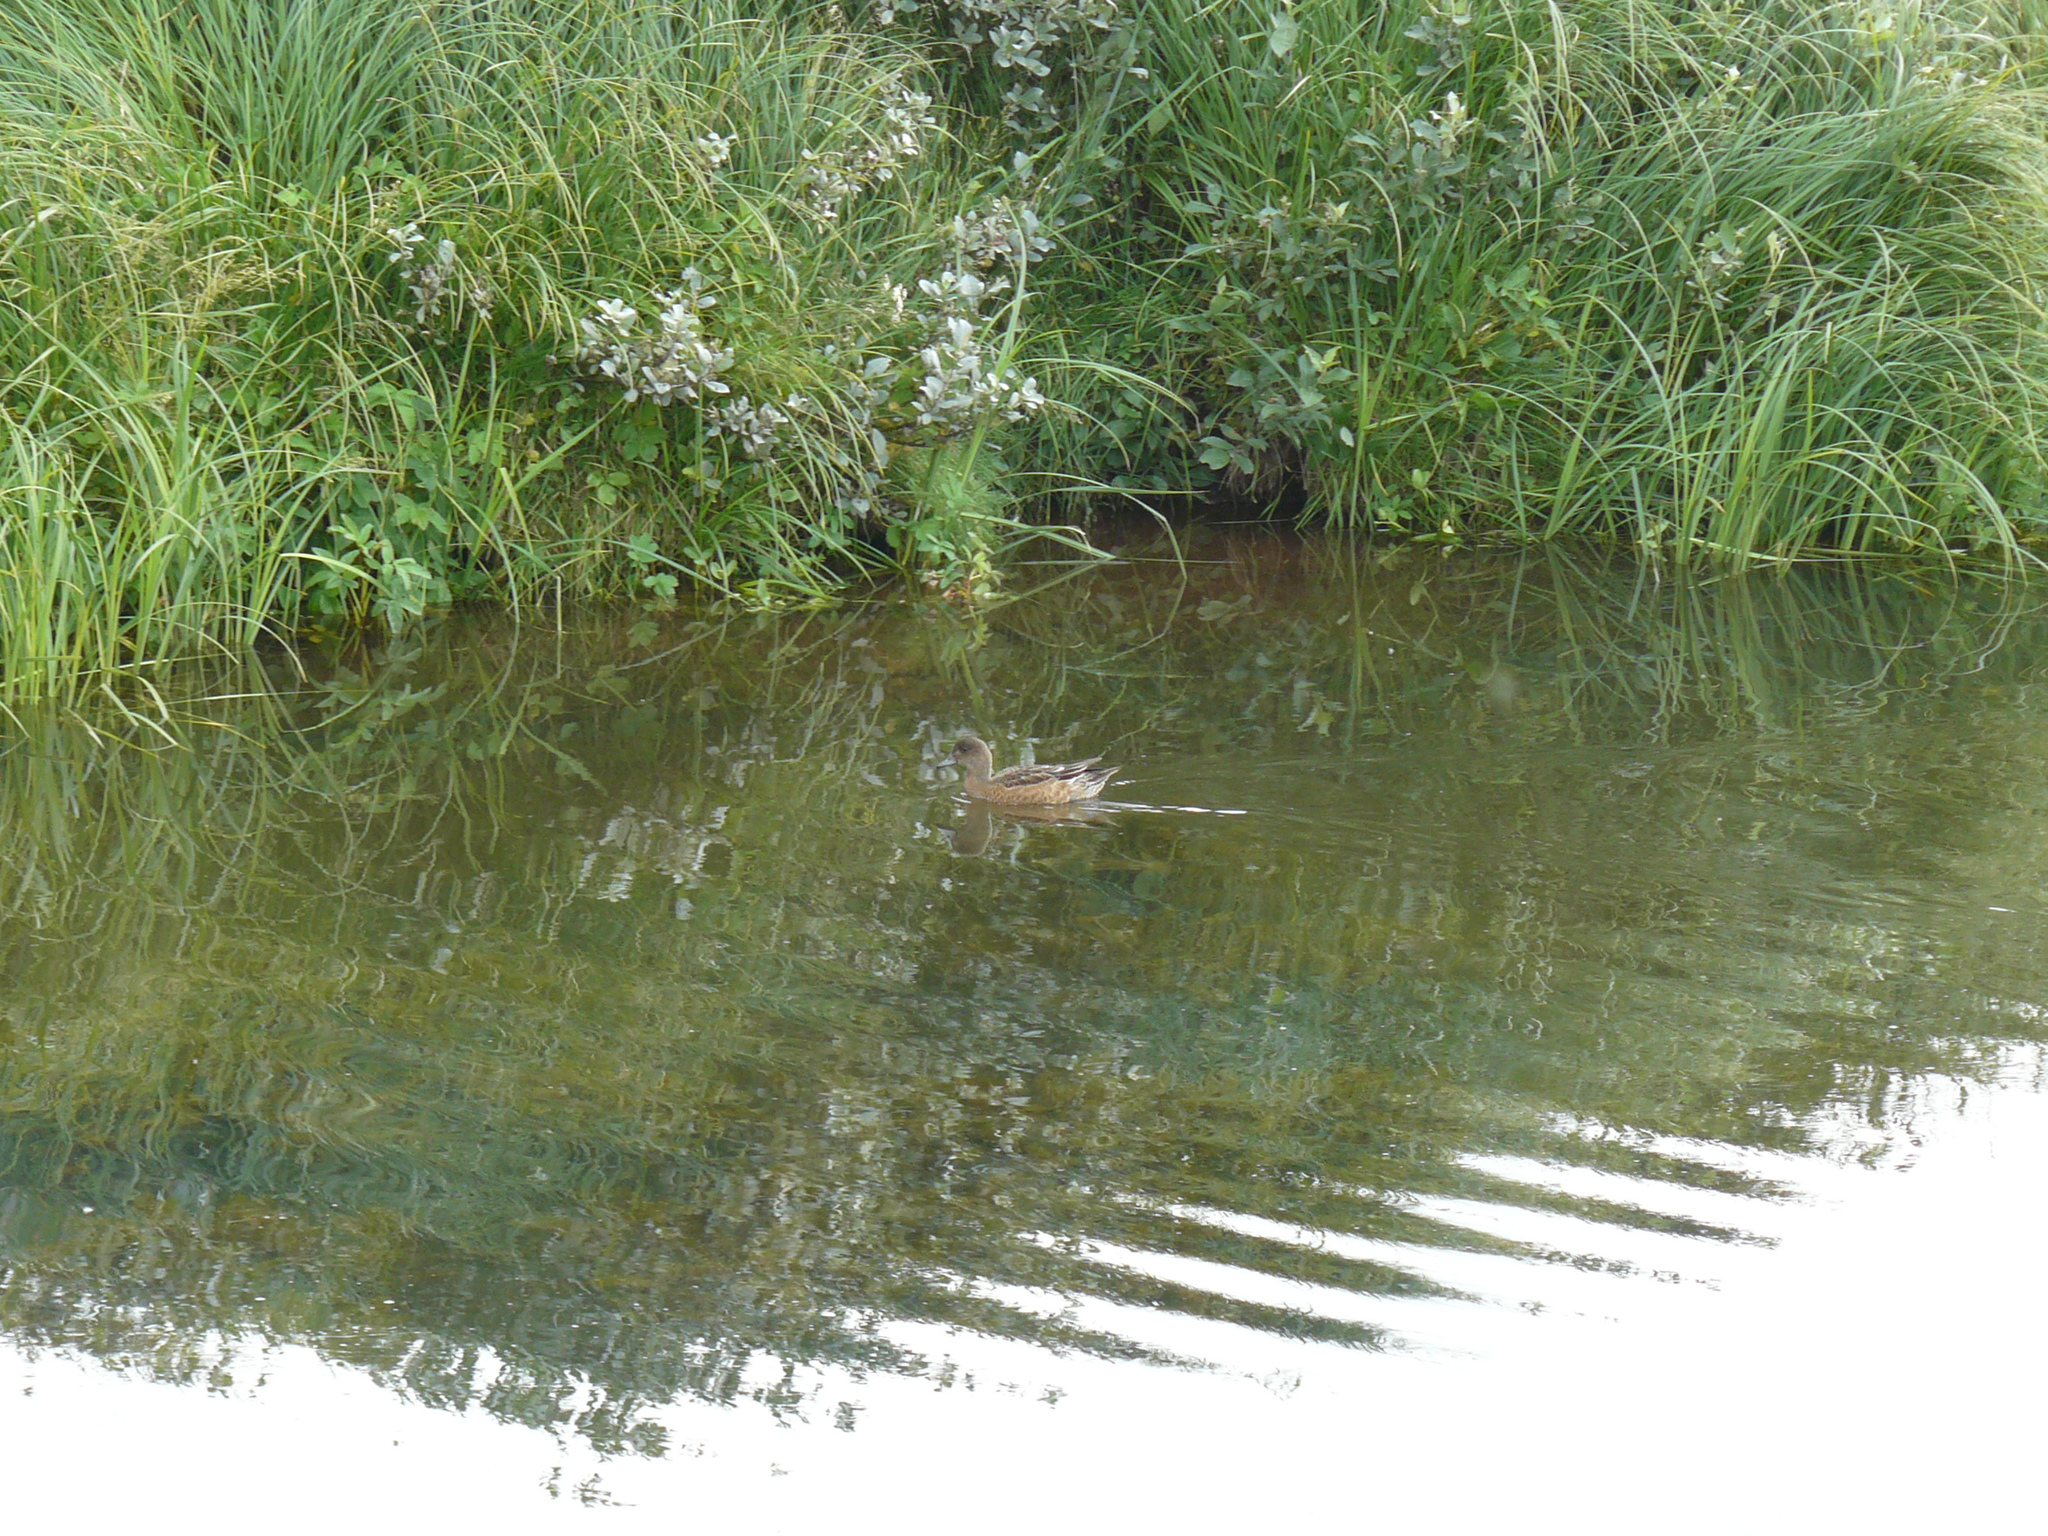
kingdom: Animalia
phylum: Chordata
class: Aves
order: Anseriformes
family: Anatidae
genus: Mareca
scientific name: Mareca penelope
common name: Eurasian wigeon
